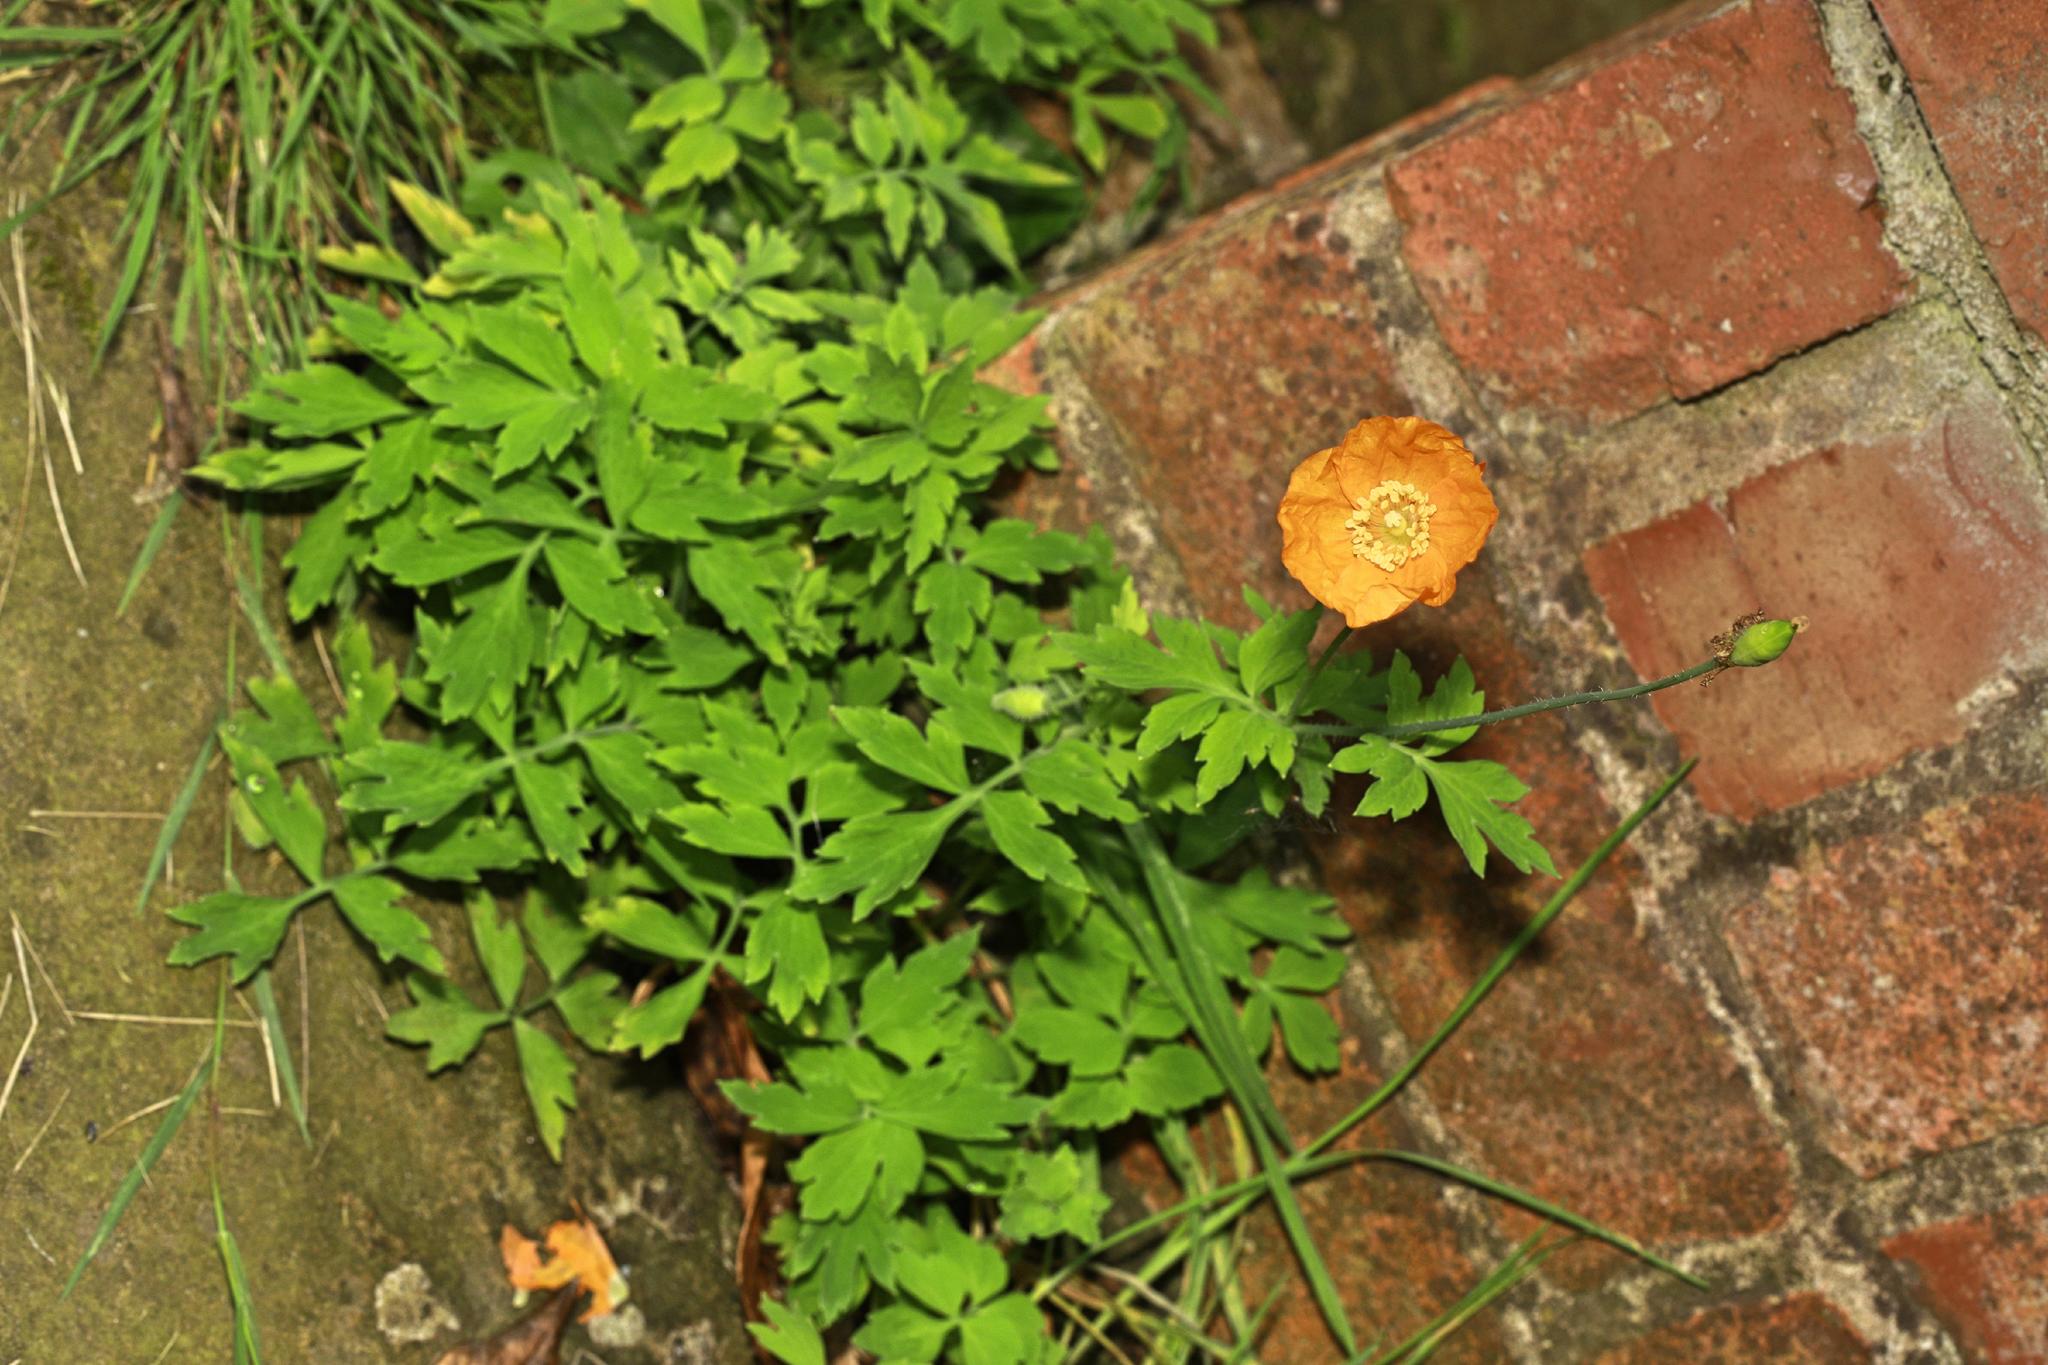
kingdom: Plantae
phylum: Tracheophyta
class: Magnoliopsida
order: Ranunculales
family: Papaveraceae
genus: Papaver
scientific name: Papaver cambricum
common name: Poppy
